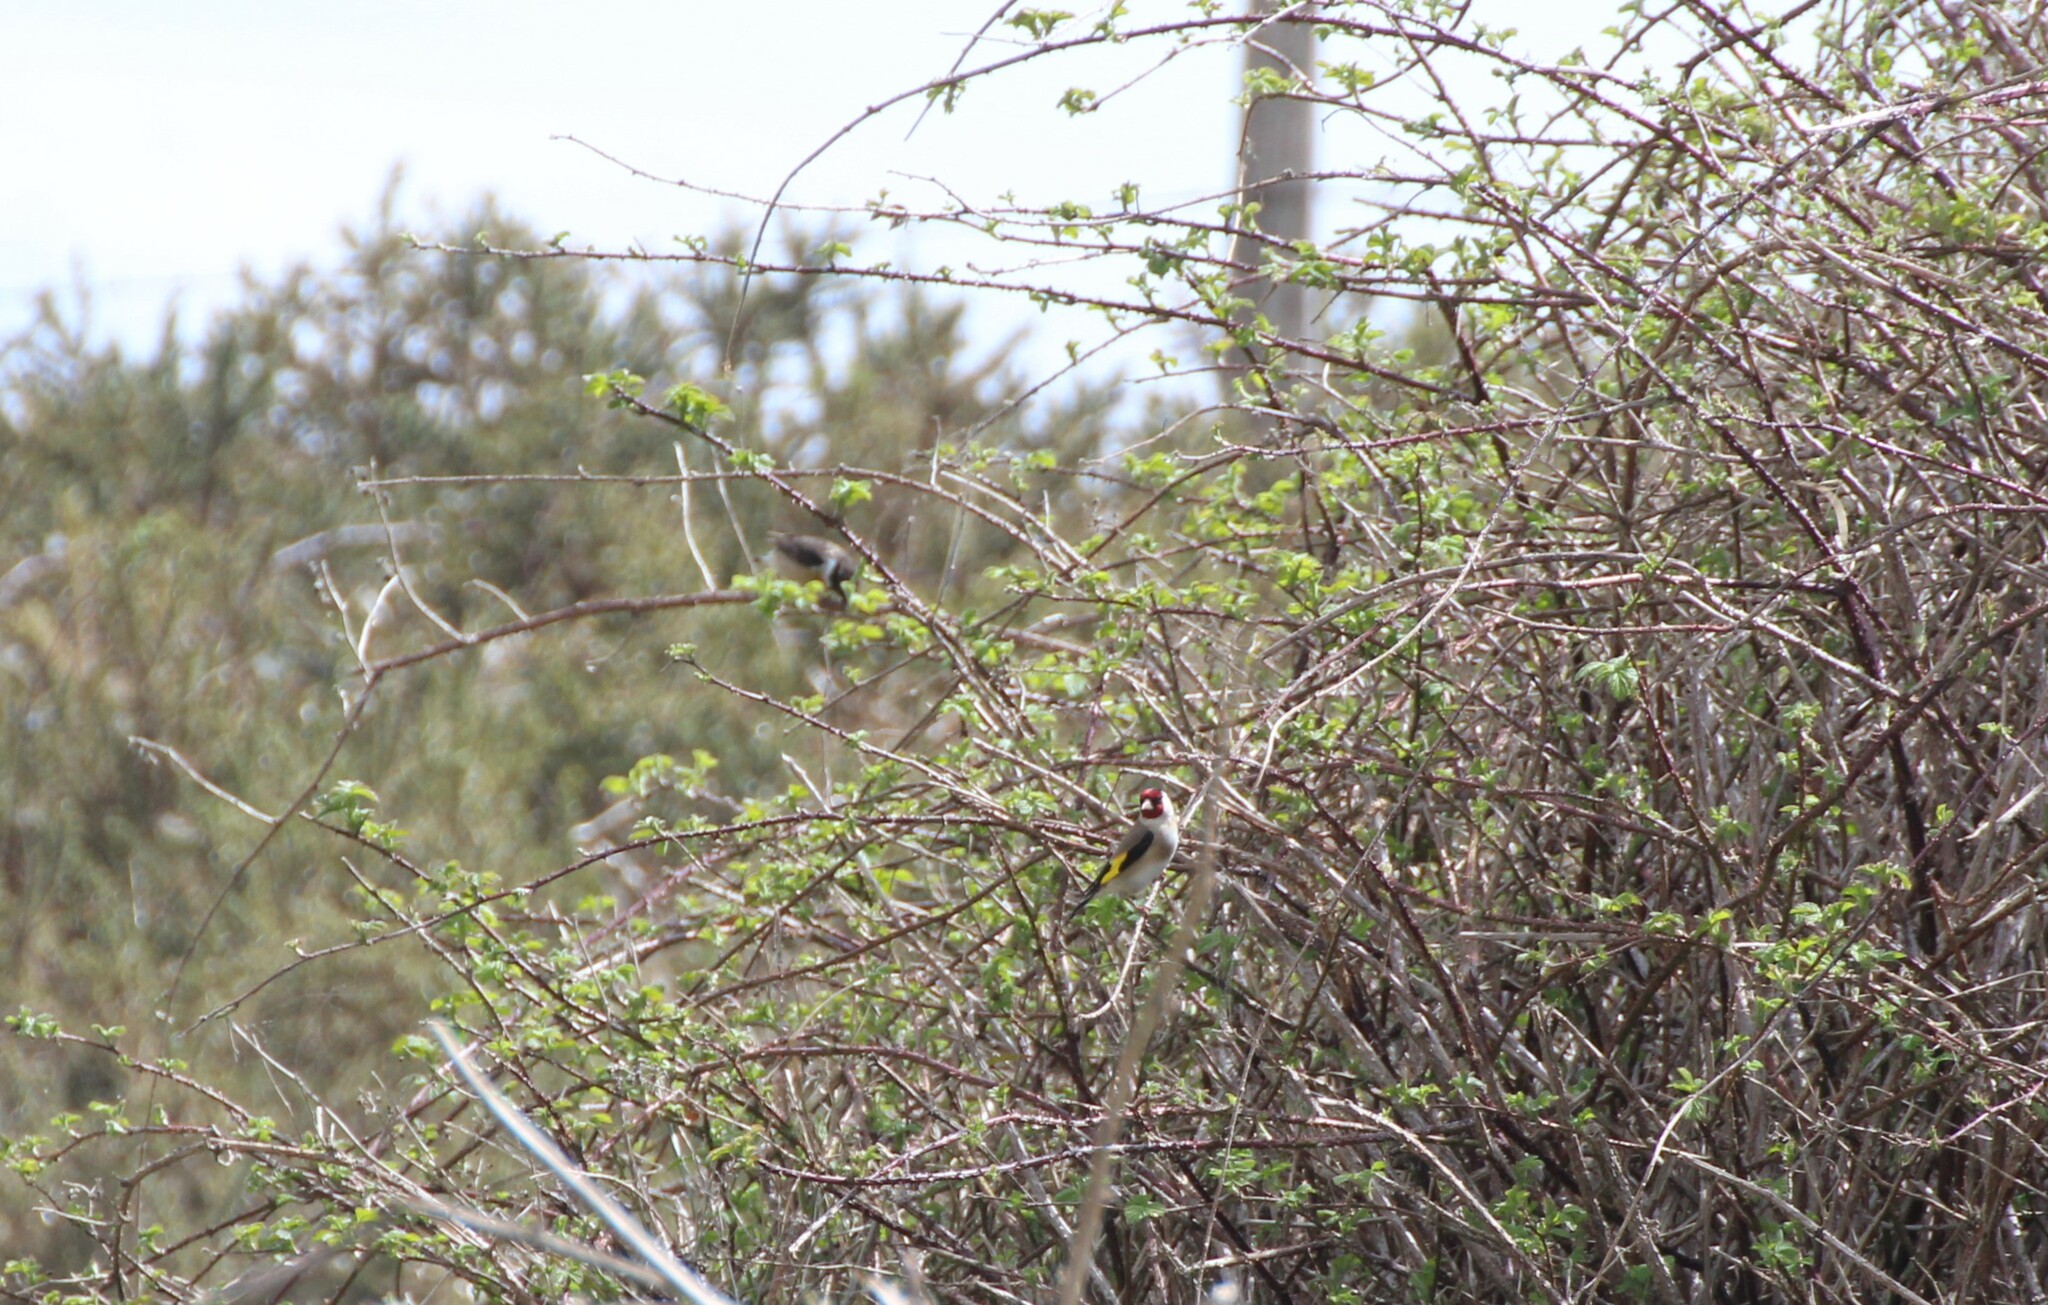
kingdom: Animalia
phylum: Chordata
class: Aves
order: Passeriformes
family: Fringillidae
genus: Carduelis
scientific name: Carduelis carduelis
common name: European goldfinch
